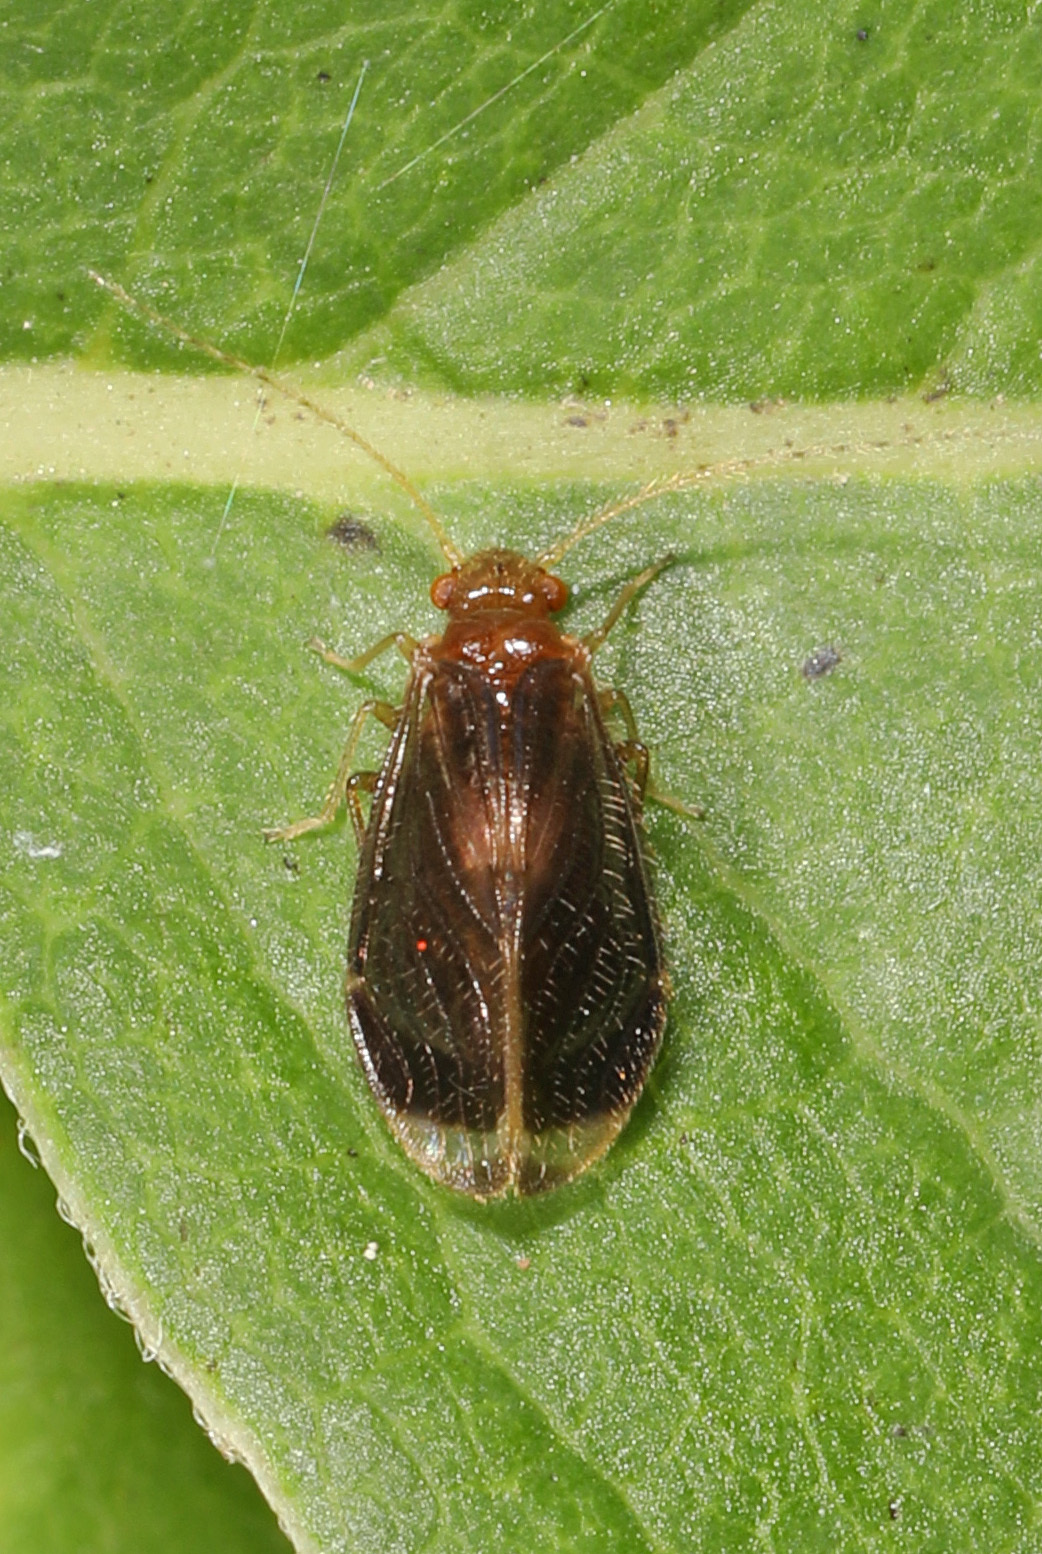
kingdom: Animalia
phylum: Arthropoda
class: Insecta
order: Psocodea
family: Amphipsocidae
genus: Polypsocus
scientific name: Polypsocus corruptus
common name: Corrupt barklouse
